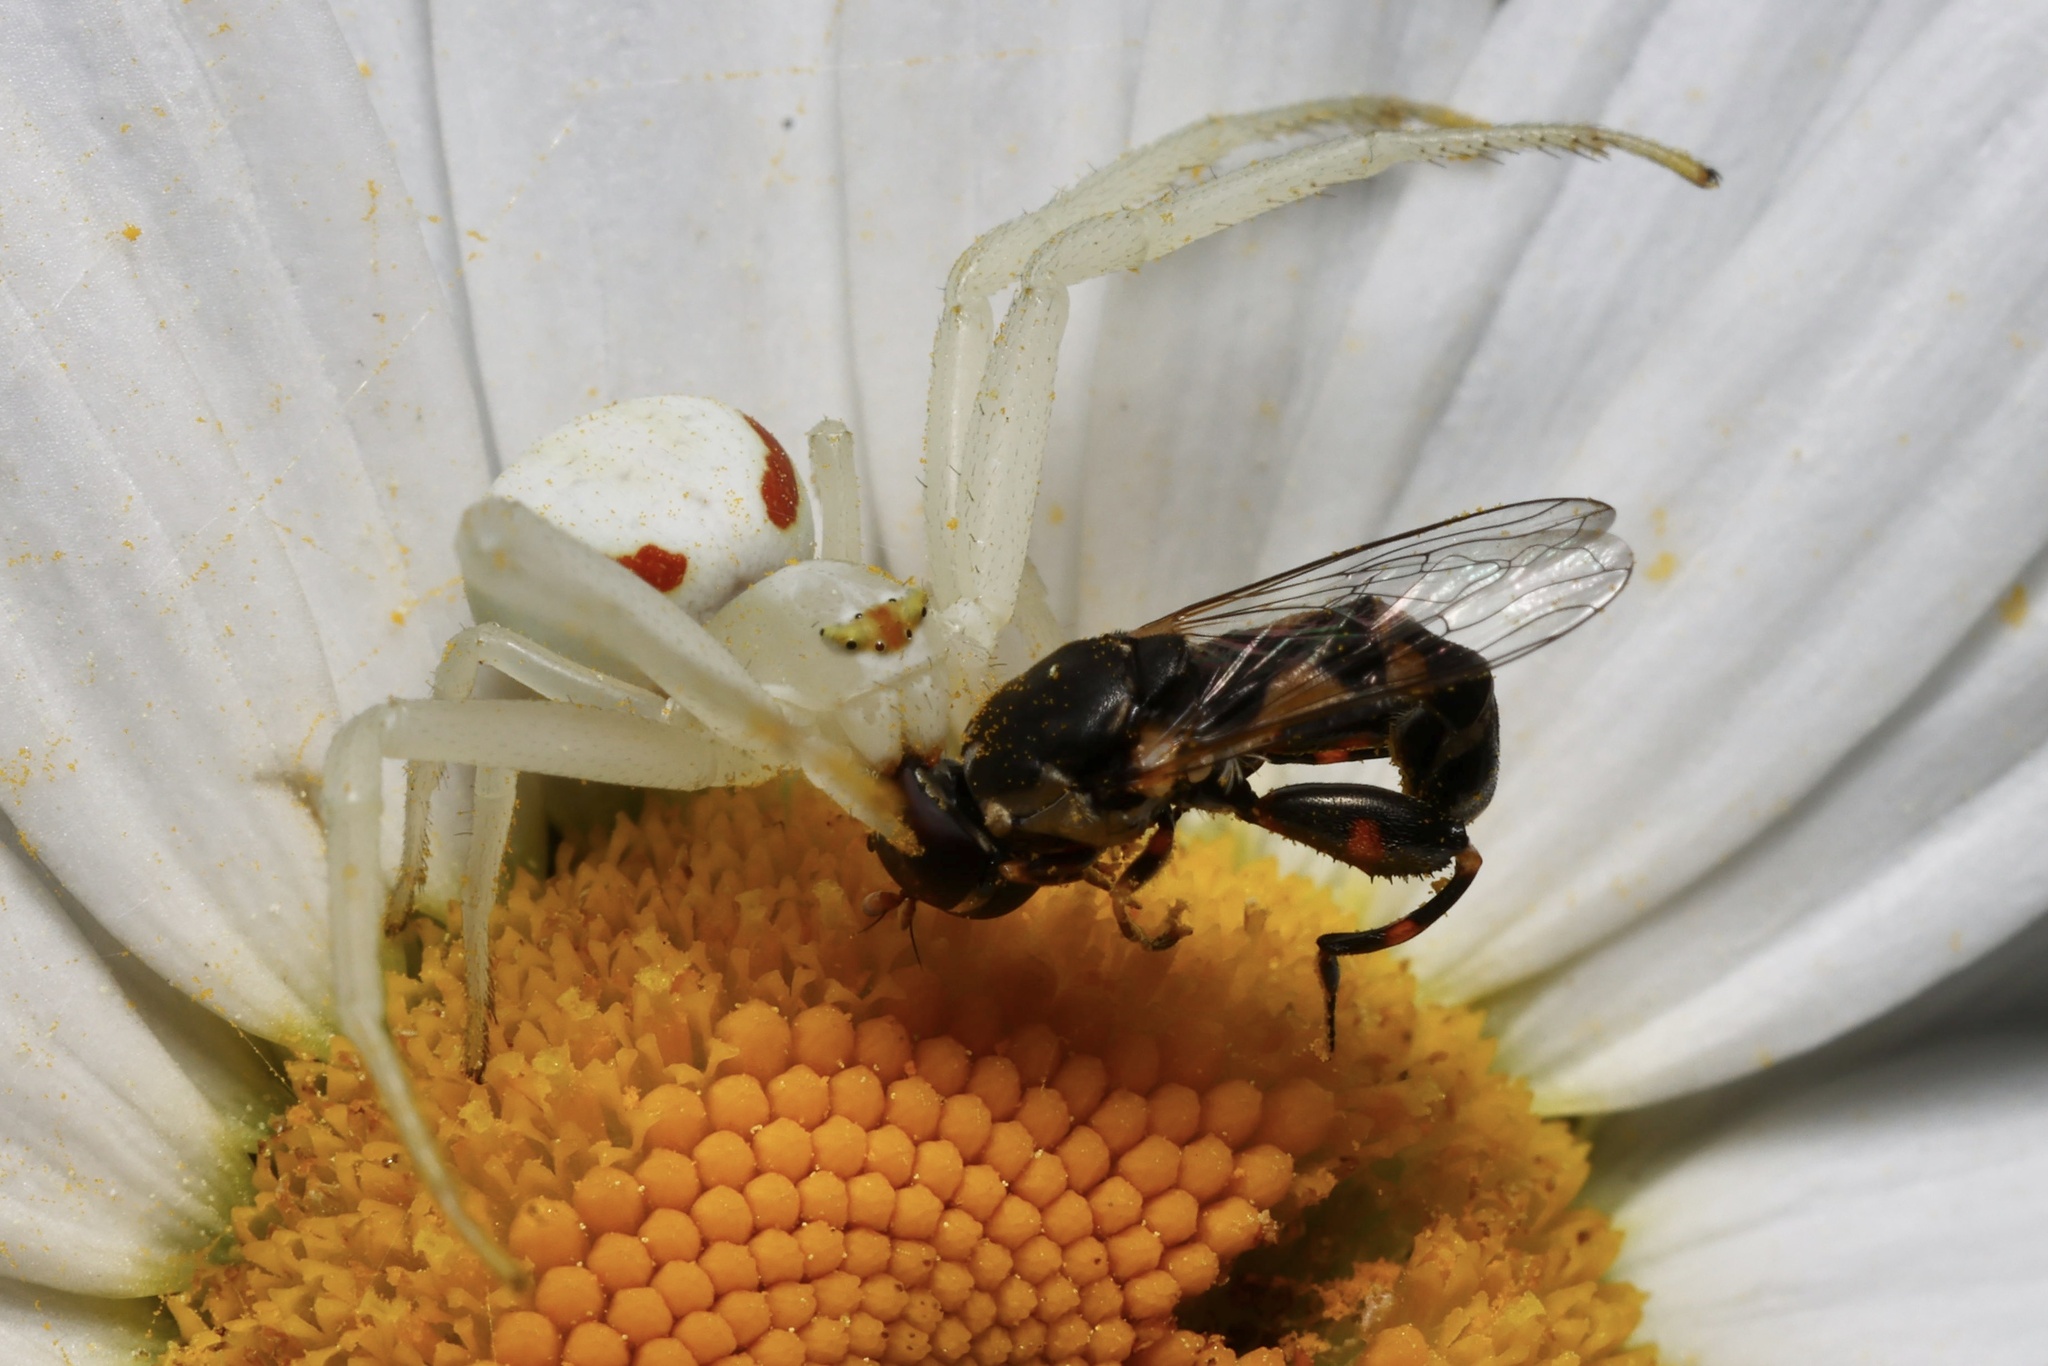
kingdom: Animalia
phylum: Arthropoda
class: Arachnida
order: Araneae
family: Thomisidae
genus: Misumena
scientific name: Misumena vatia
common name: Goldenrod crab spider
